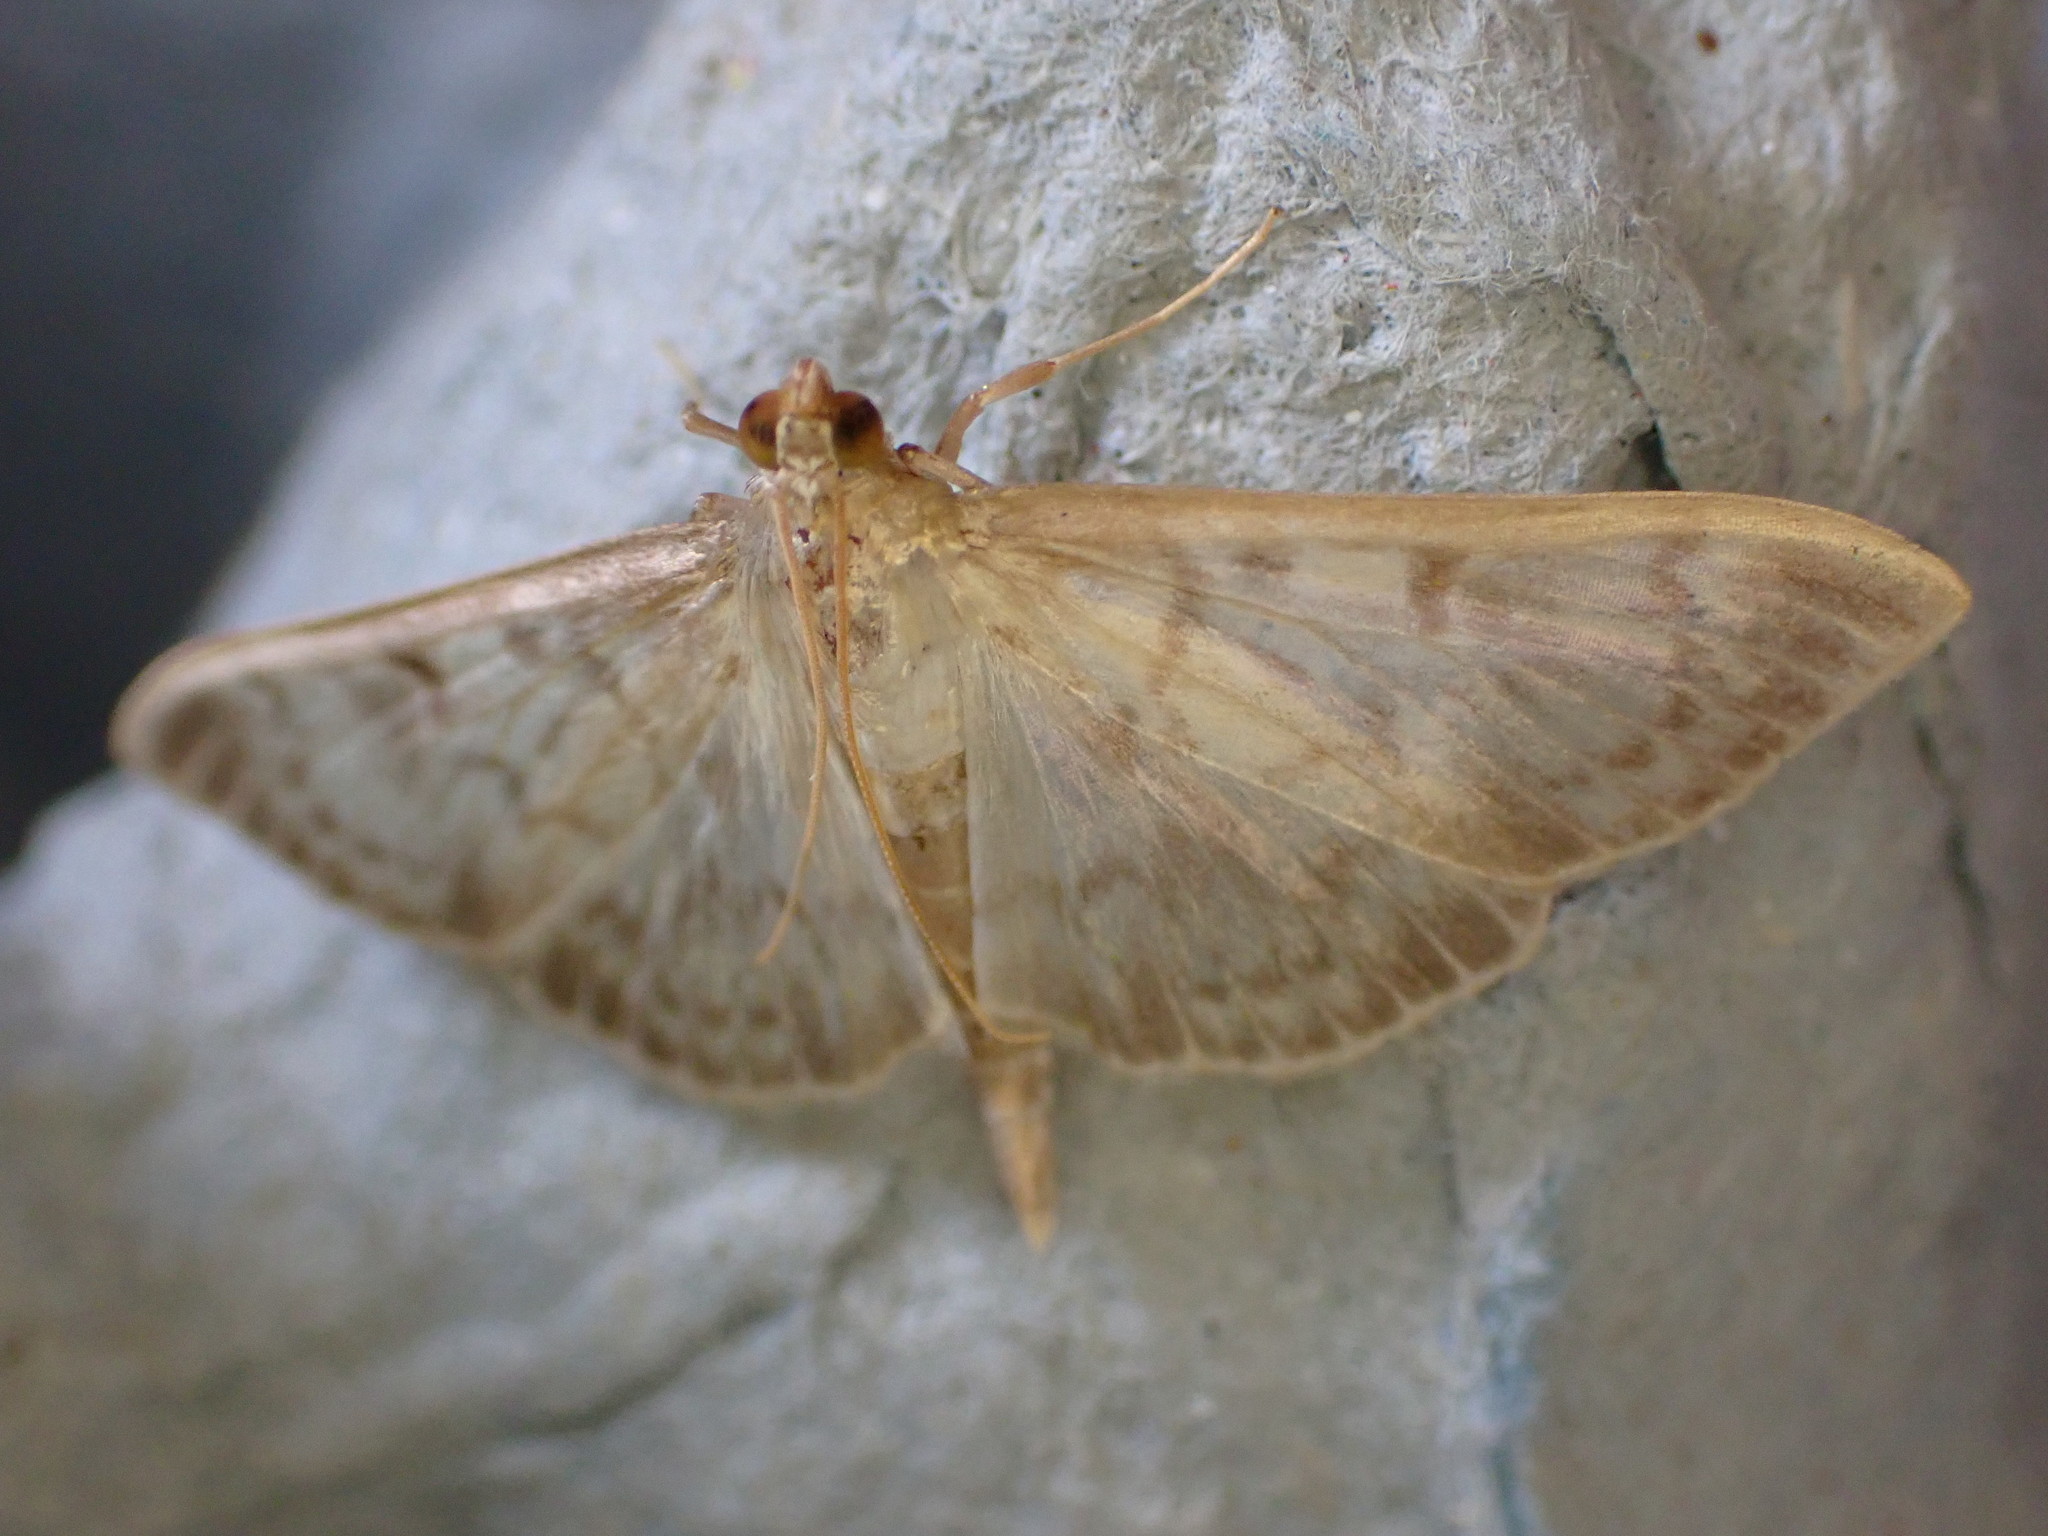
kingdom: Animalia
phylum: Arthropoda
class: Insecta
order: Lepidoptera
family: Crambidae
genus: Patania
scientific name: Patania ruralis
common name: Mother of pearl
